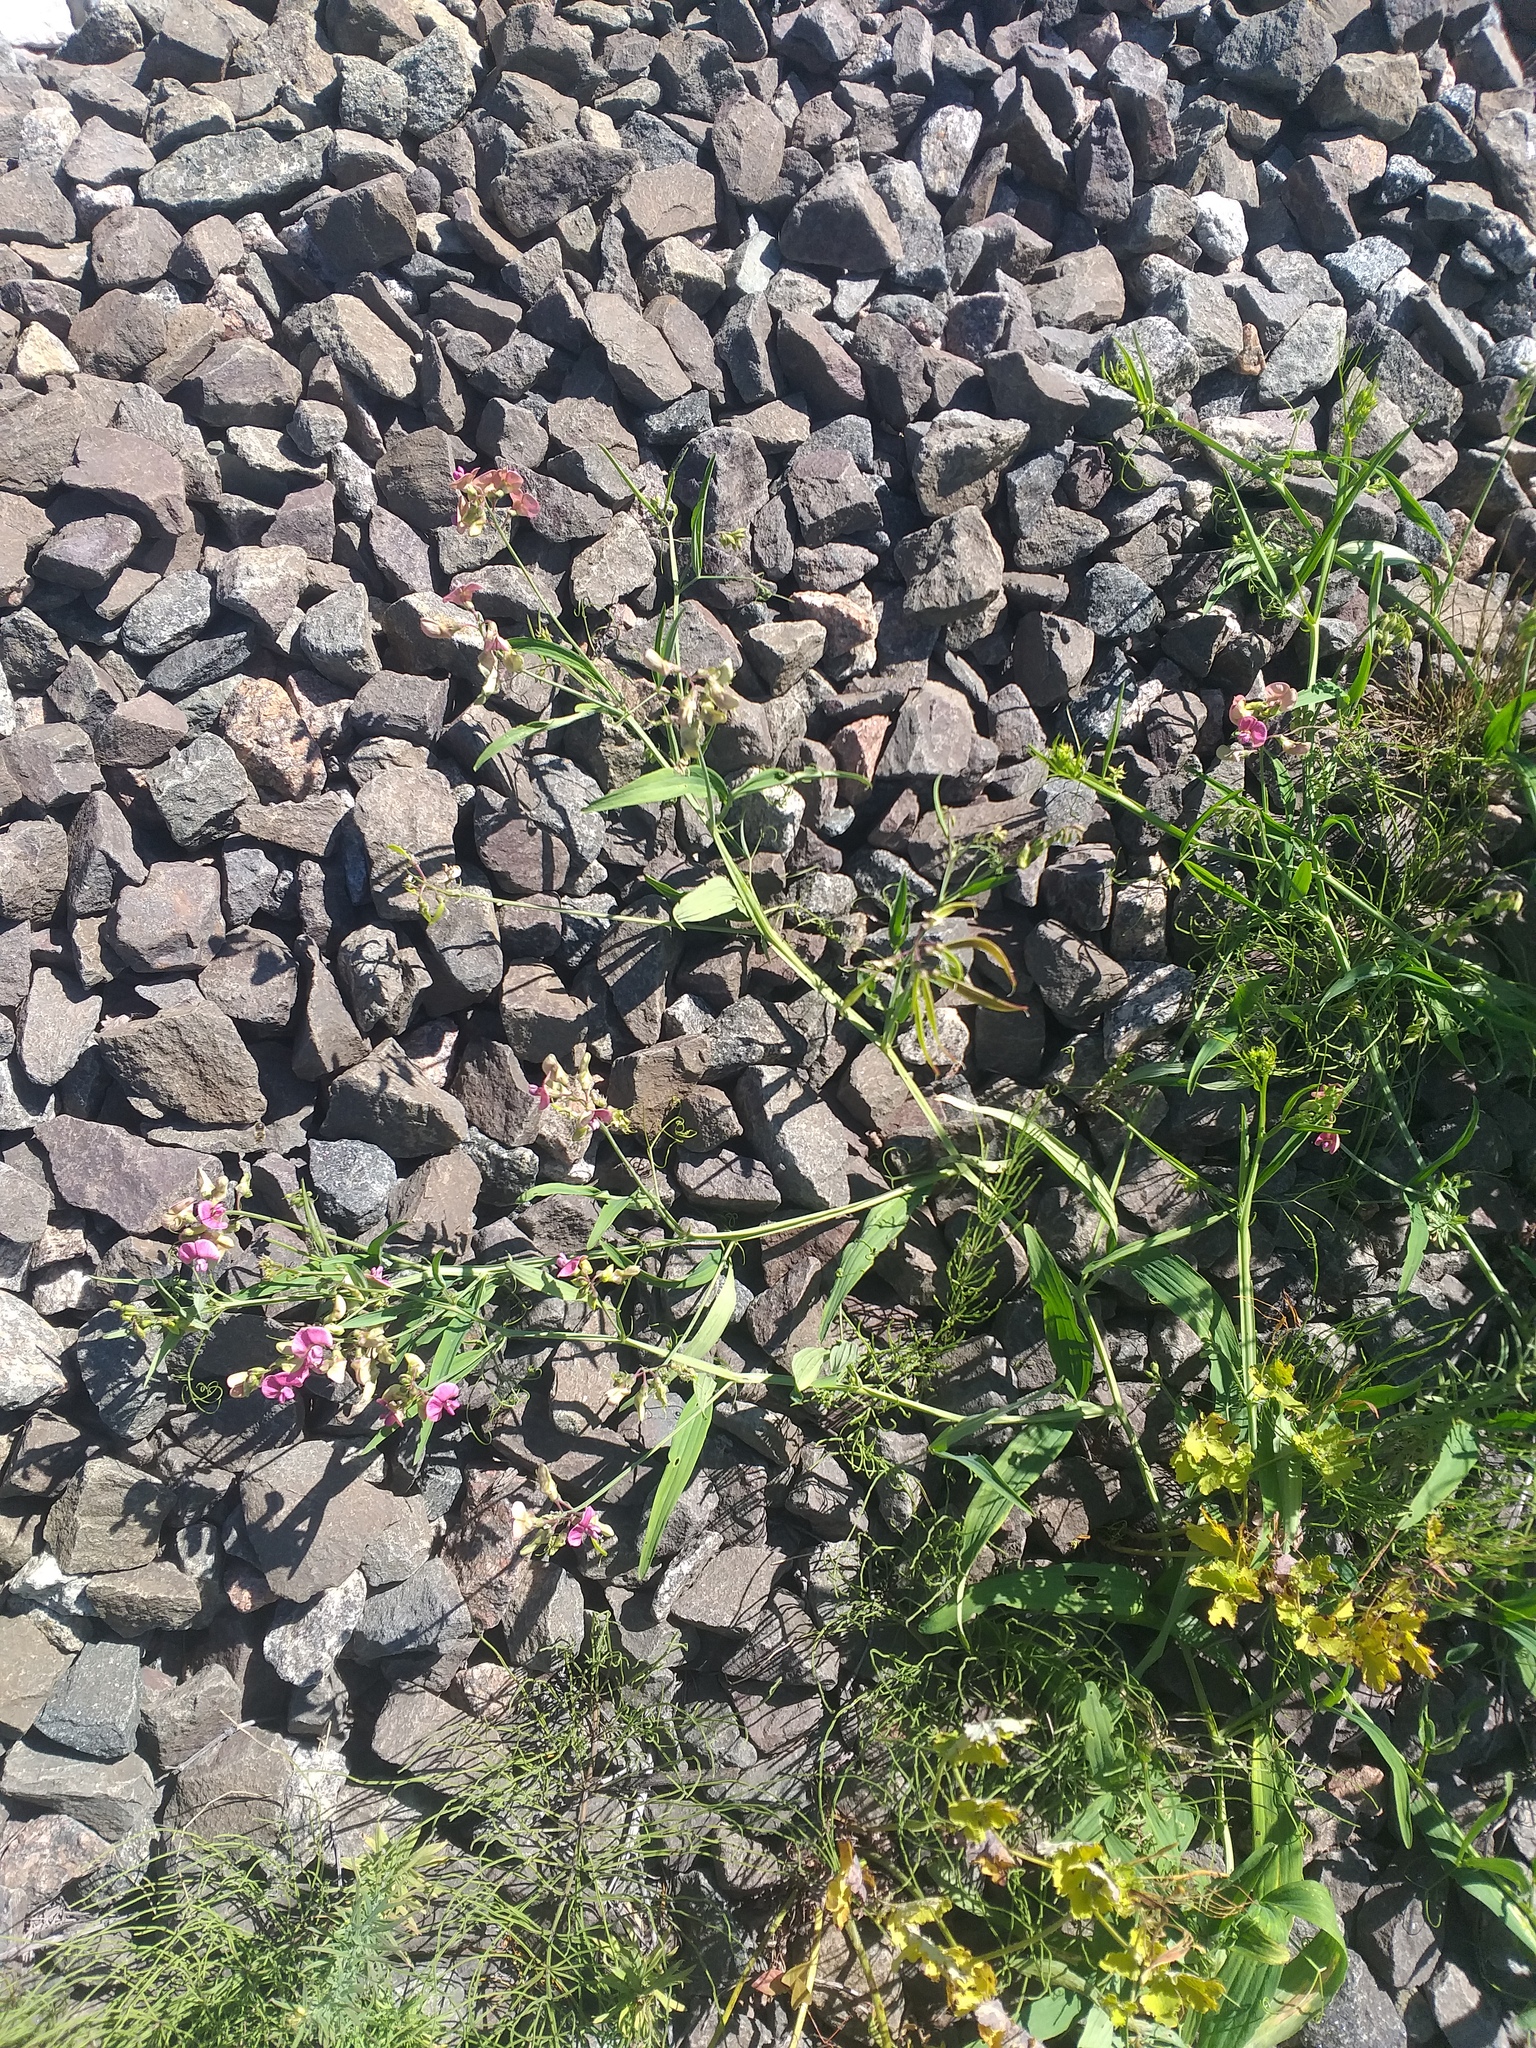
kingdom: Plantae
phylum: Tracheophyta
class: Magnoliopsida
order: Fabales
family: Fabaceae
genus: Lathyrus
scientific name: Lathyrus sylvestris
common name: Flat pea
